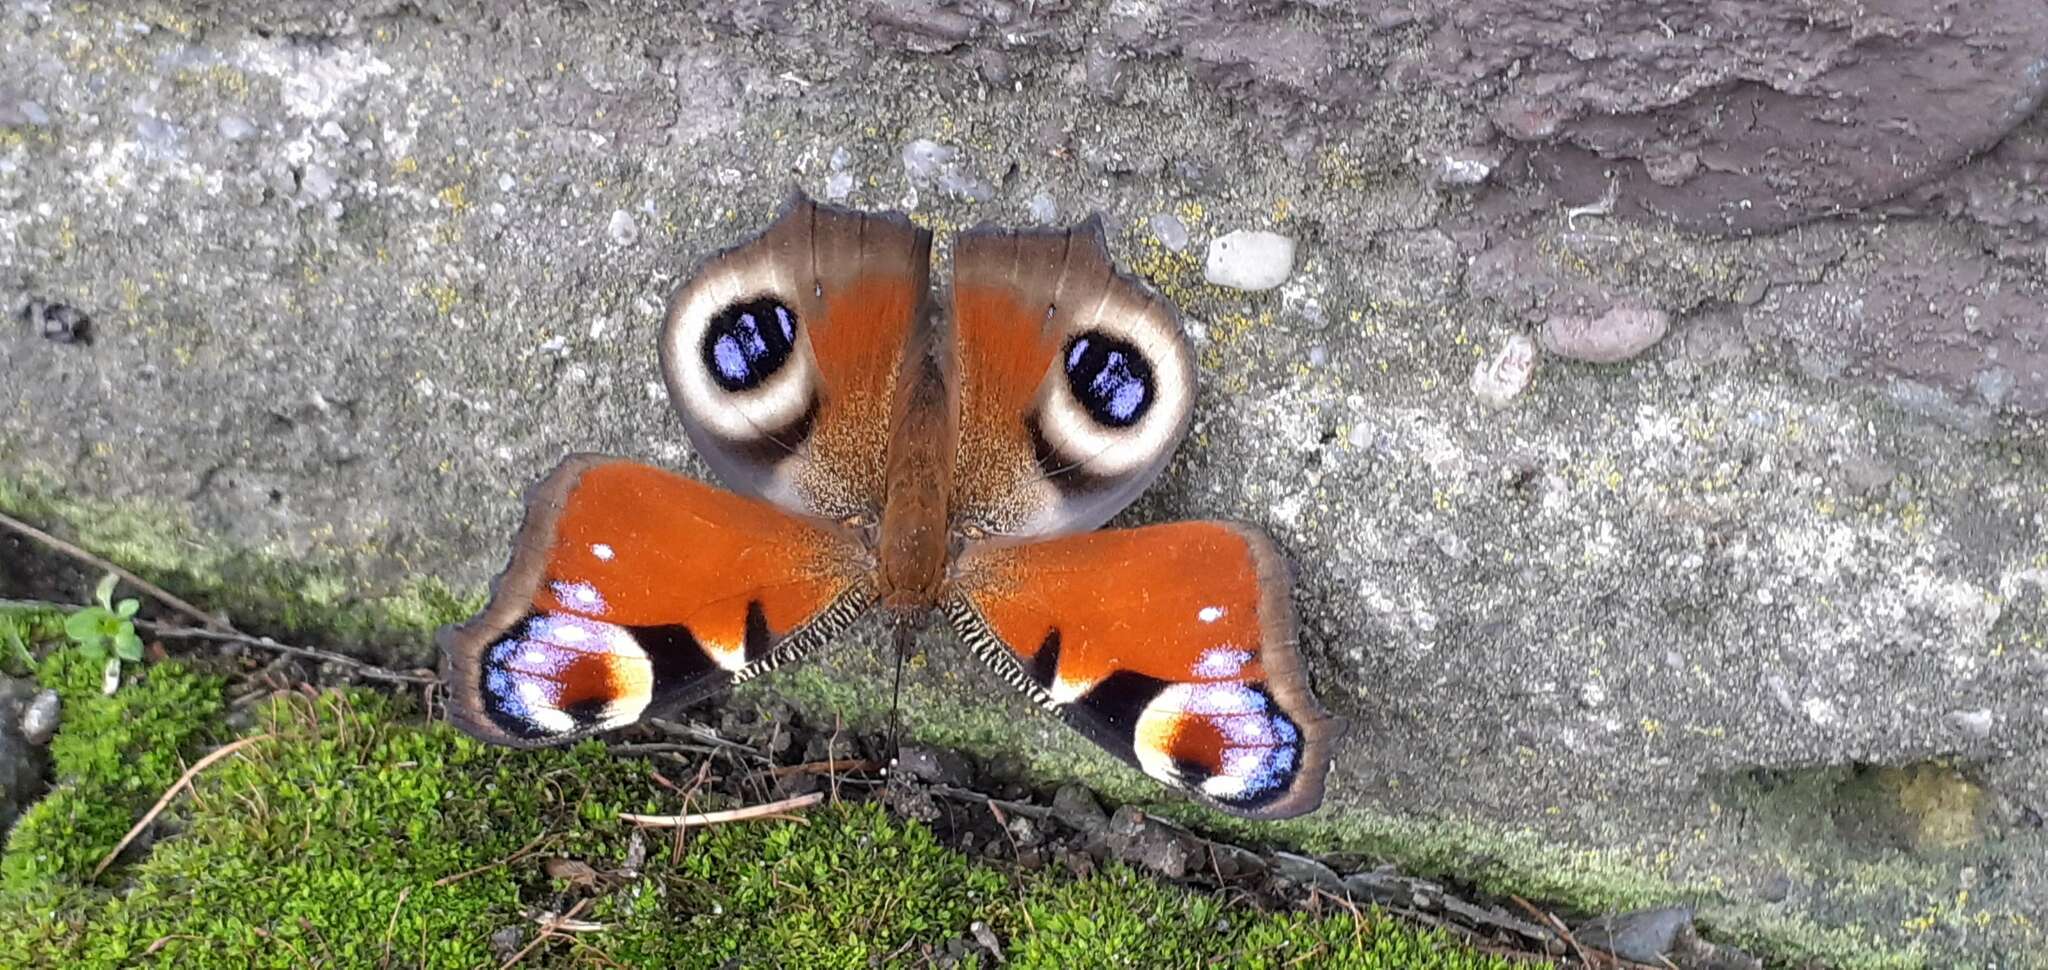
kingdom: Animalia
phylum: Arthropoda
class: Insecta
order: Lepidoptera
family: Nymphalidae
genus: Aglais
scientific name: Aglais io
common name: Peacock
